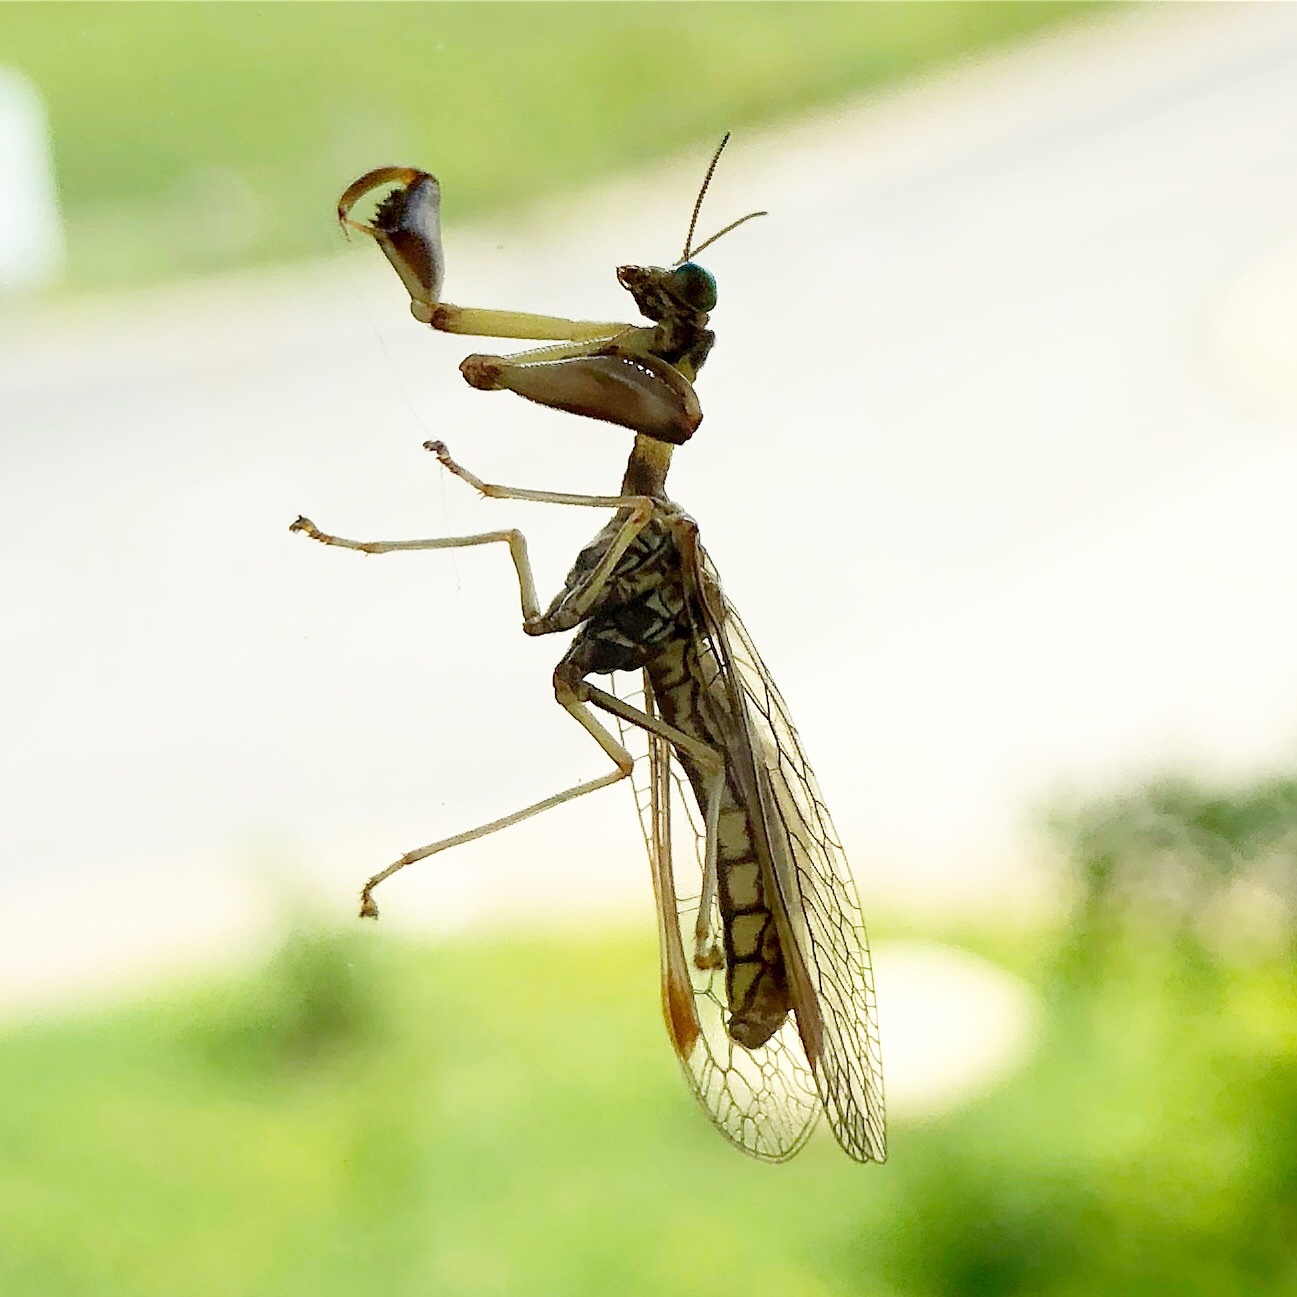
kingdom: Animalia
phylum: Arthropoda
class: Insecta
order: Neuroptera
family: Mantispidae
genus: Mantispa
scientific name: Mantispa styriaca
